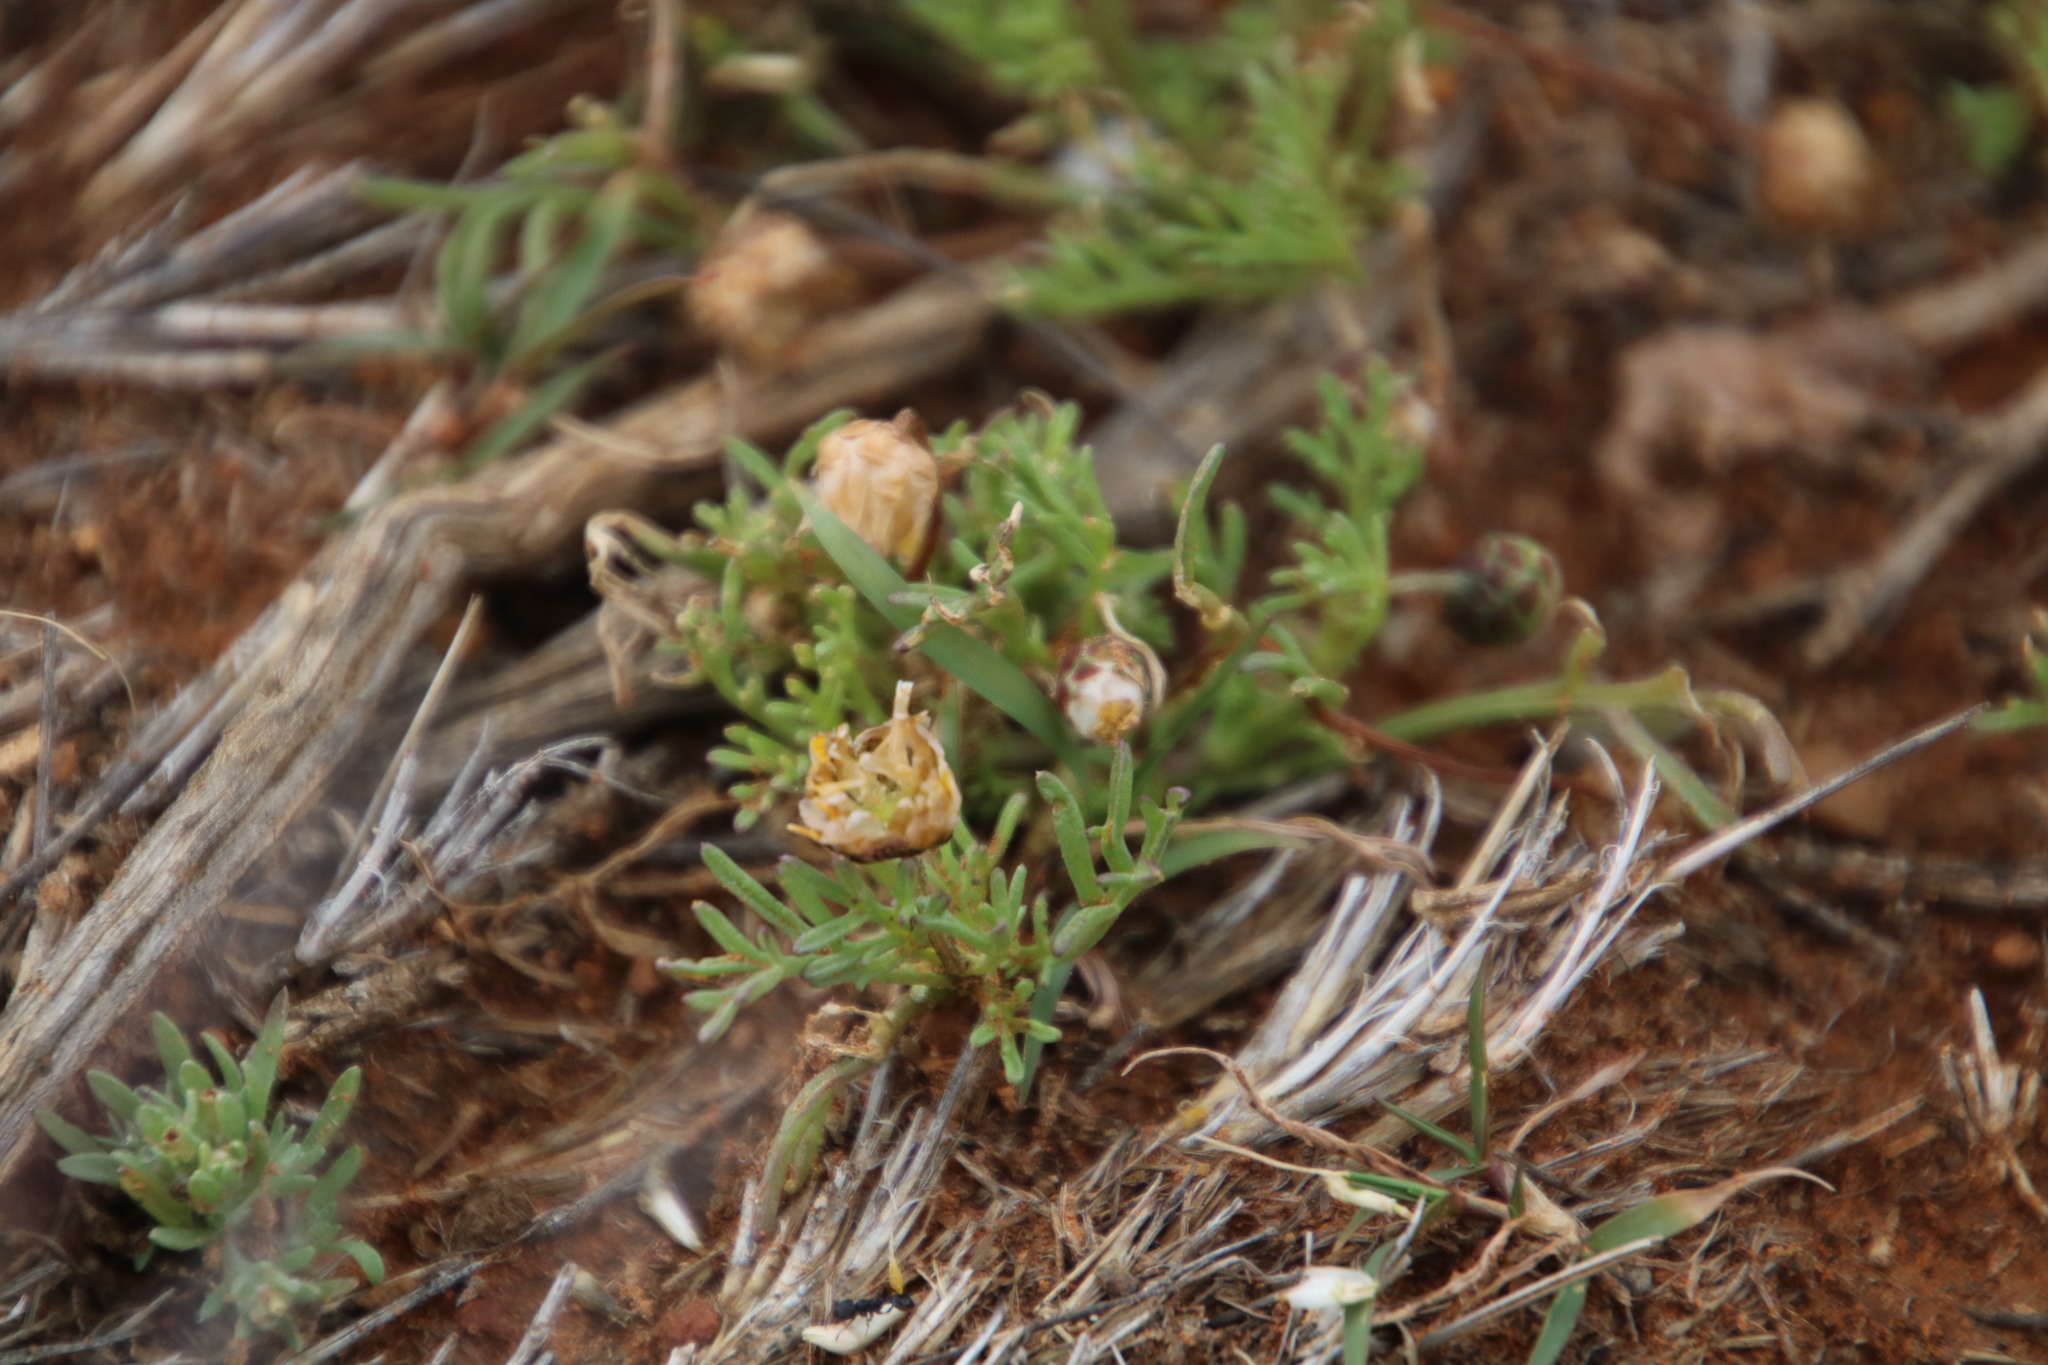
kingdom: Plantae
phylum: Tracheophyta
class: Magnoliopsida
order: Asterales
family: Asteraceae
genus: Ursinia
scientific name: Ursinia nana
